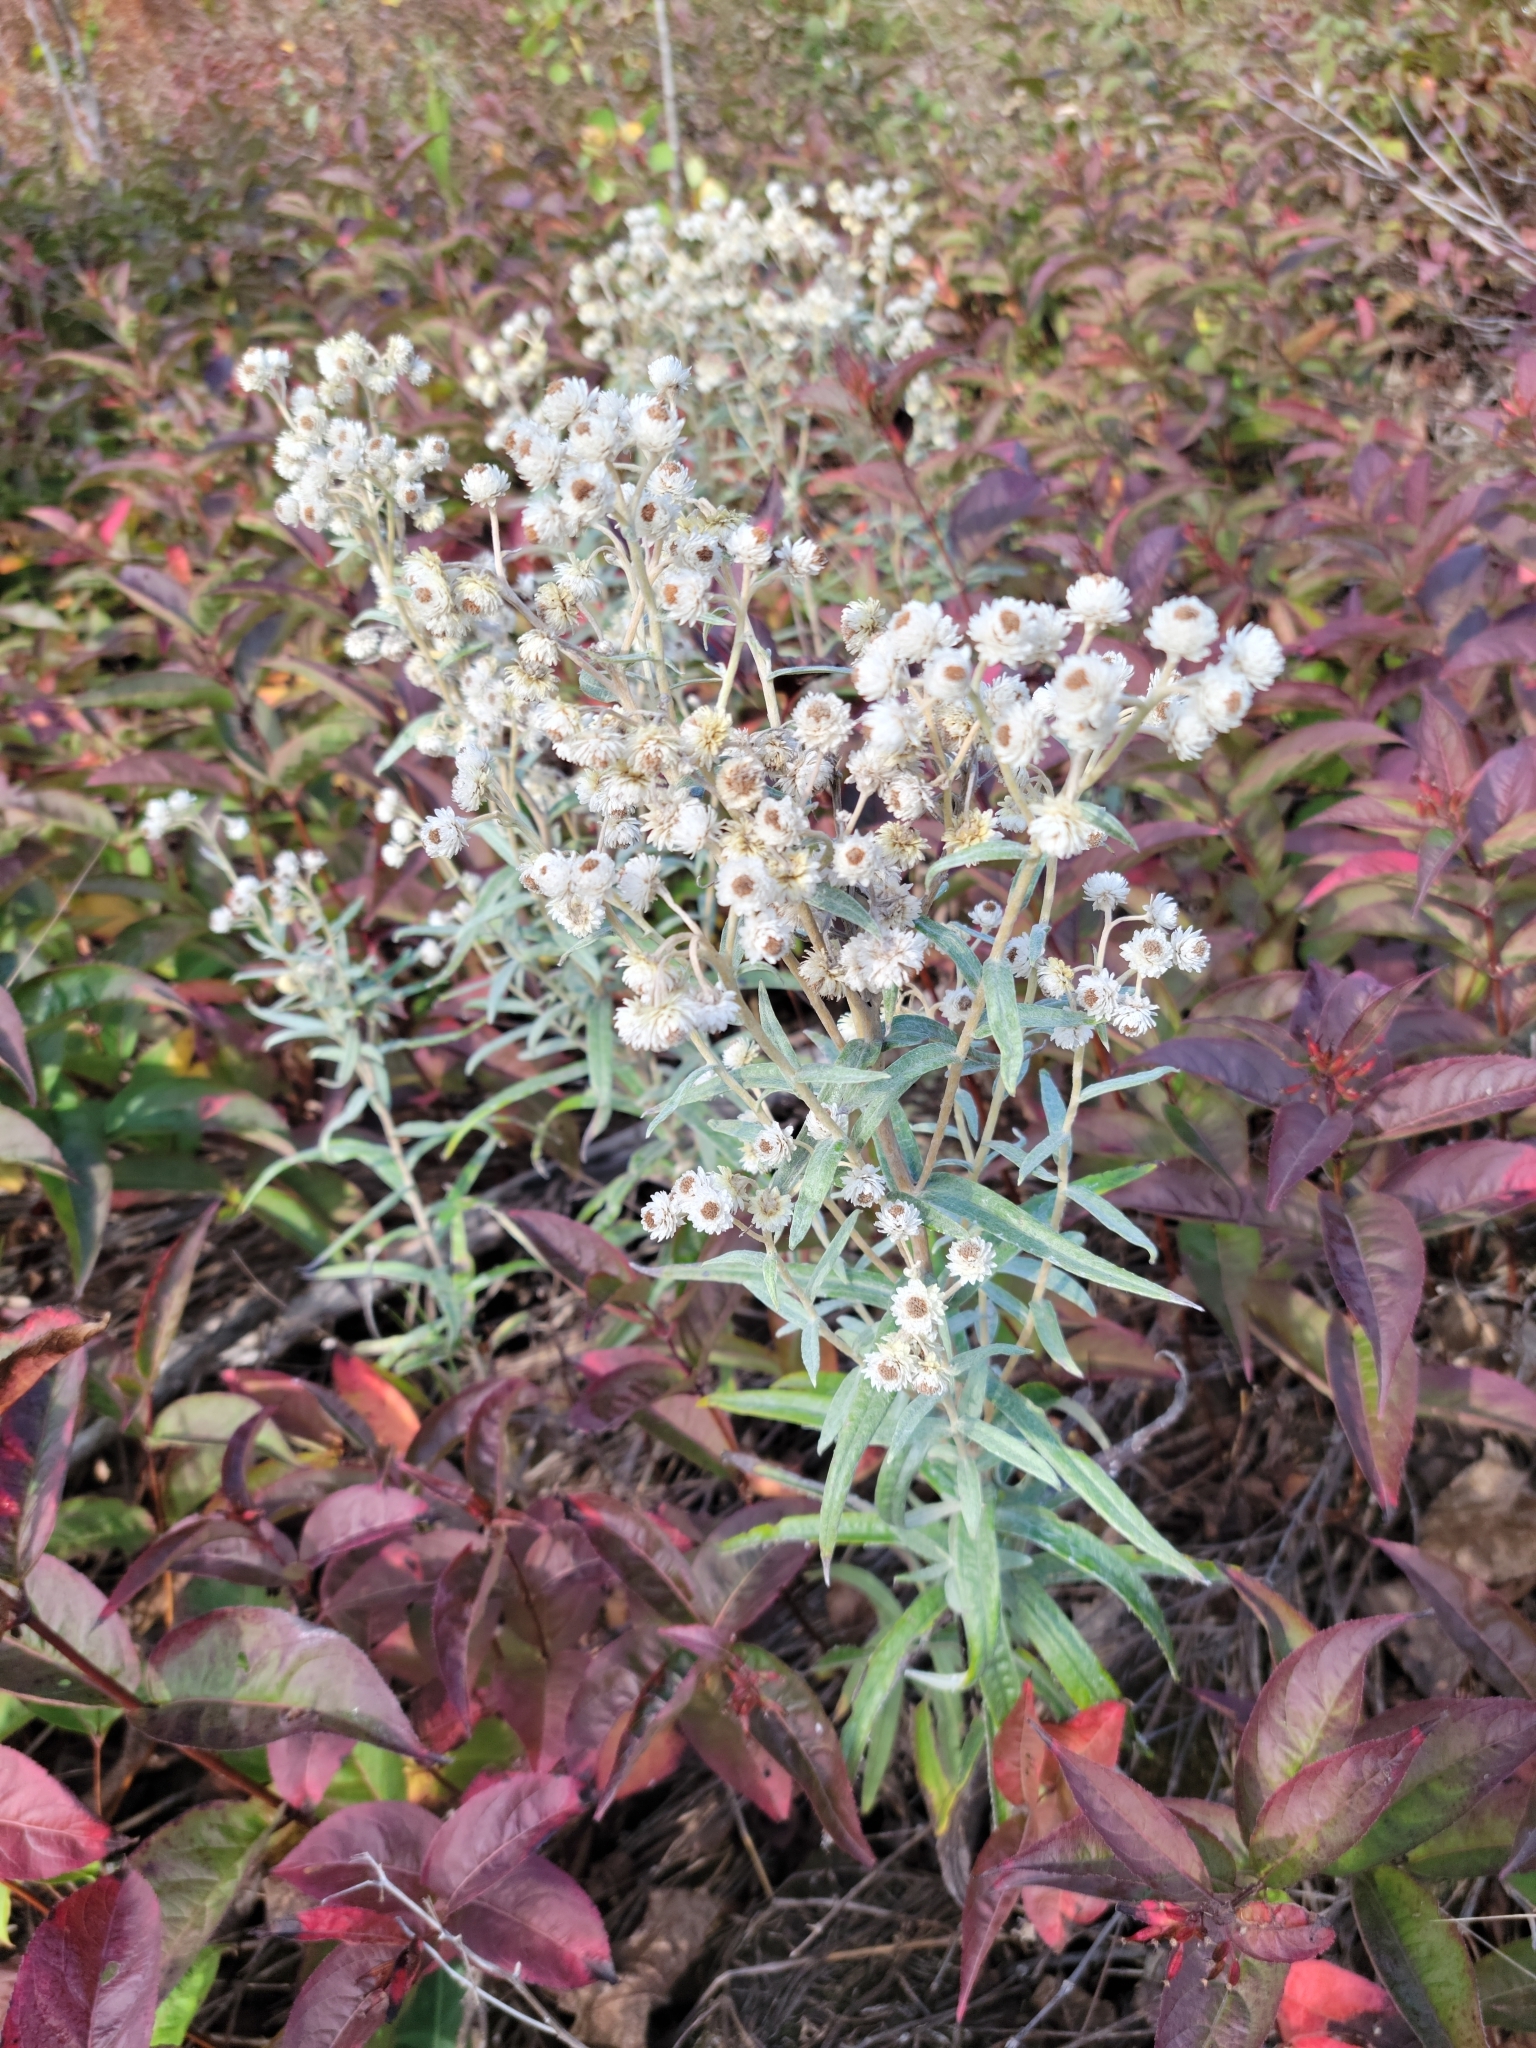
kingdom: Plantae
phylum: Tracheophyta
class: Magnoliopsida
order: Asterales
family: Asteraceae
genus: Anaphalis
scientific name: Anaphalis margaritacea
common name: Pearly everlasting
